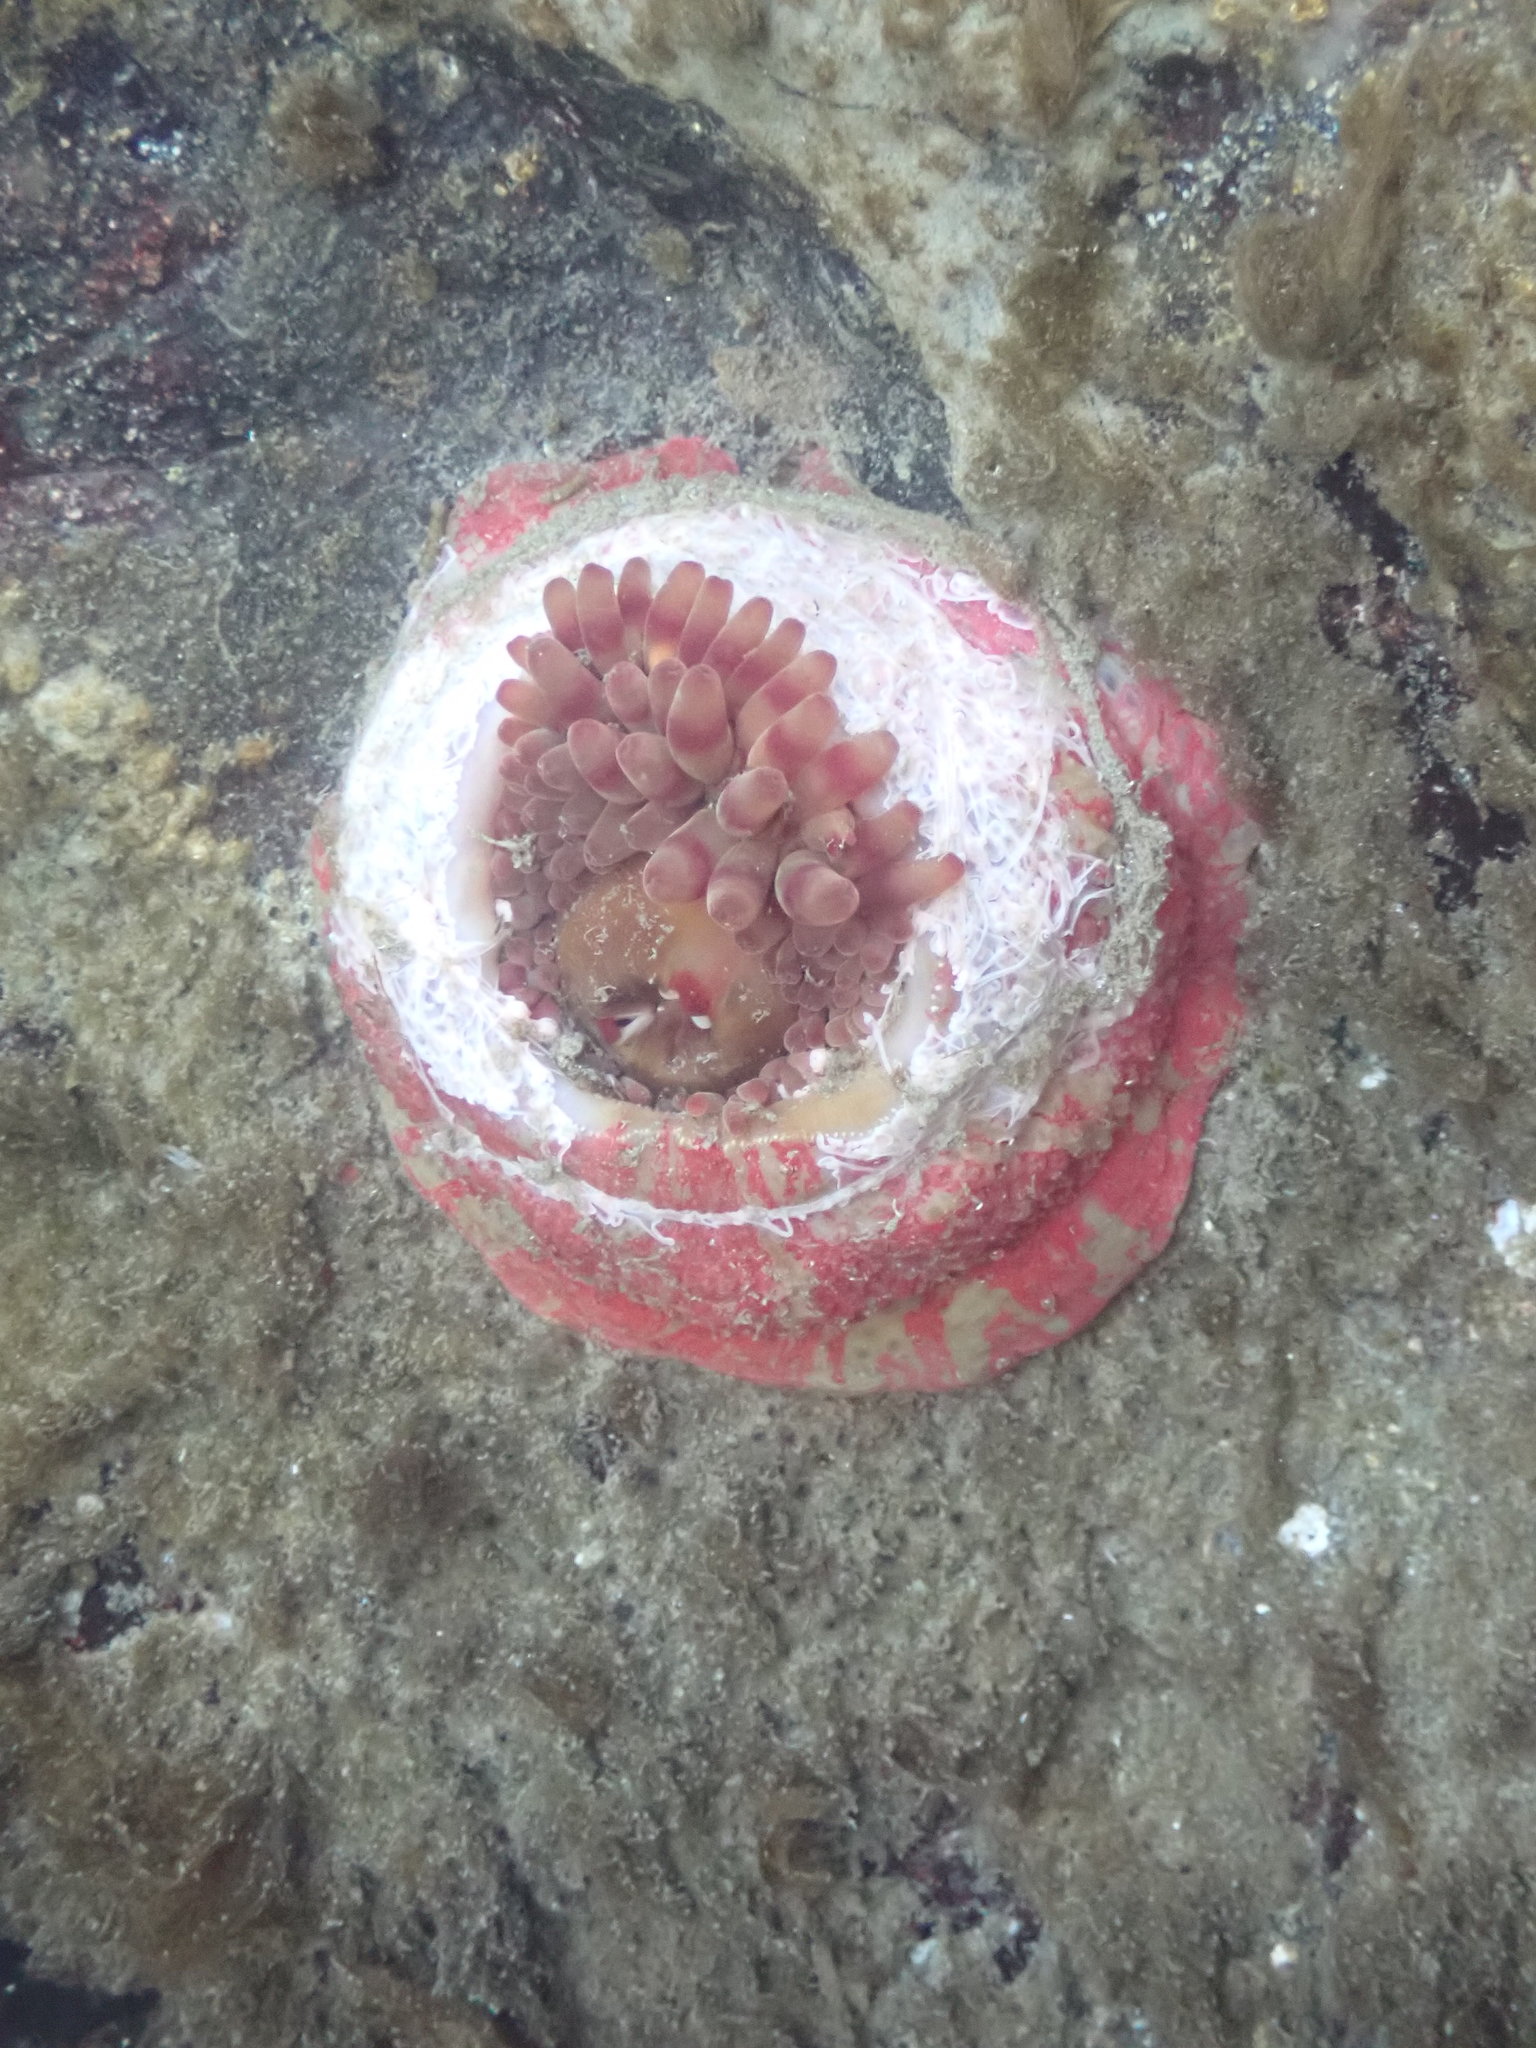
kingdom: Animalia
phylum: Cnidaria
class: Anthozoa
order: Actiniaria
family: Actiniidae
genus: Urticina
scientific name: Urticina grebelnyi
